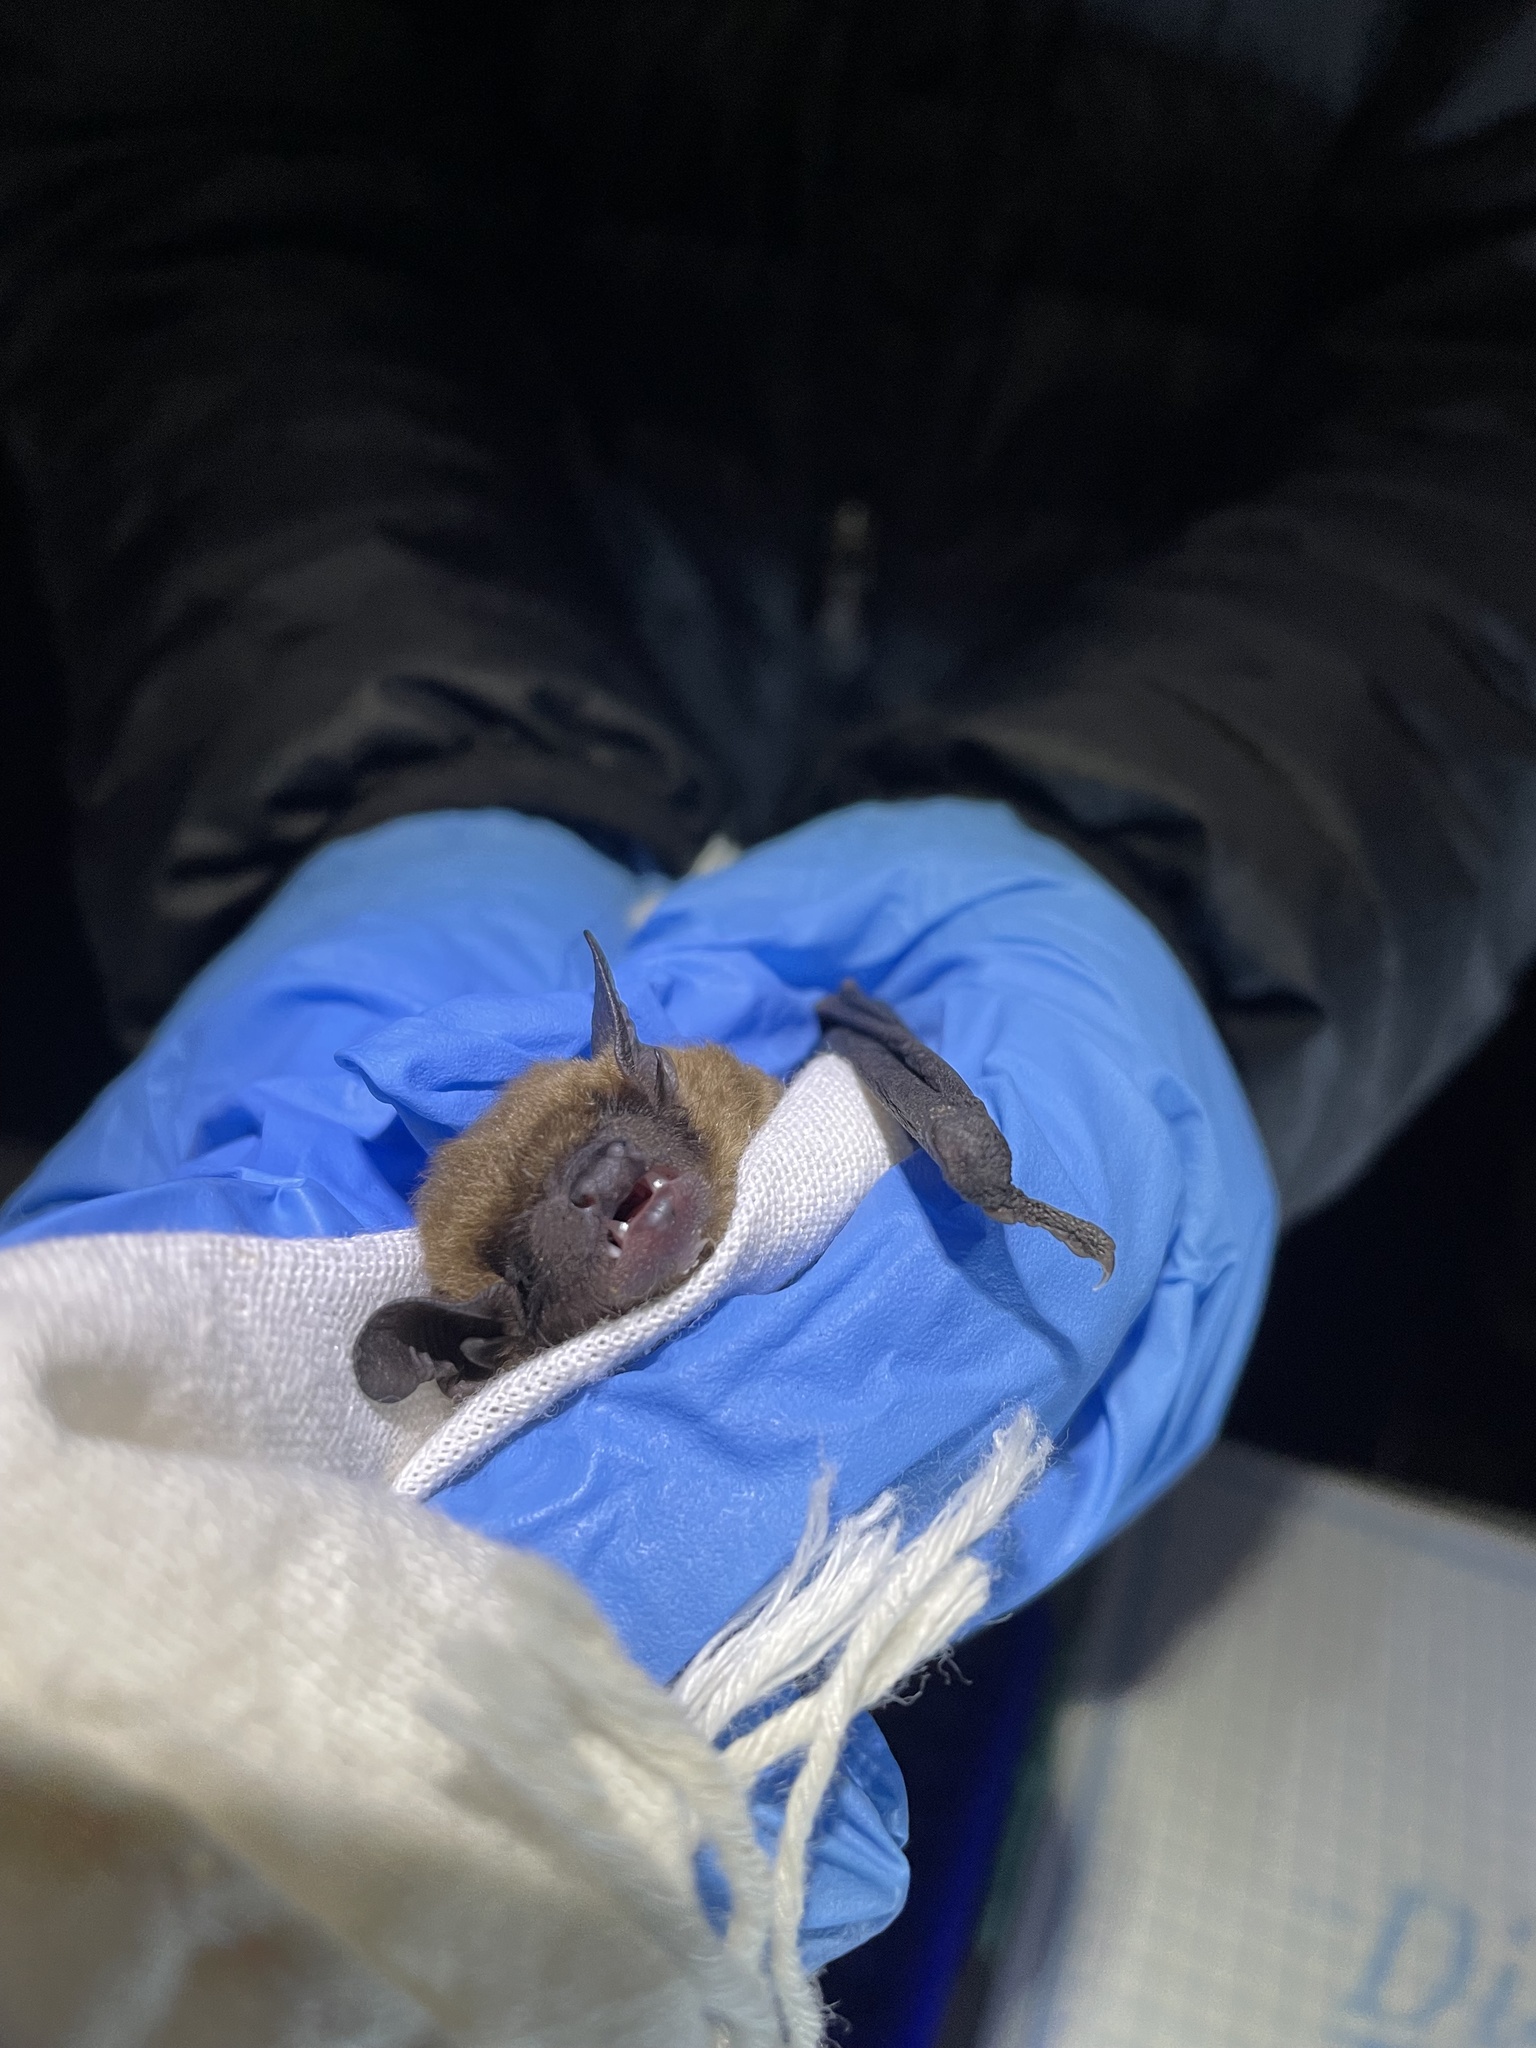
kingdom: Animalia
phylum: Chordata
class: Mammalia
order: Chiroptera
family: Vespertilionidae
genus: Eptesicus
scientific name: Eptesicus fuscus
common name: Big brown bat
